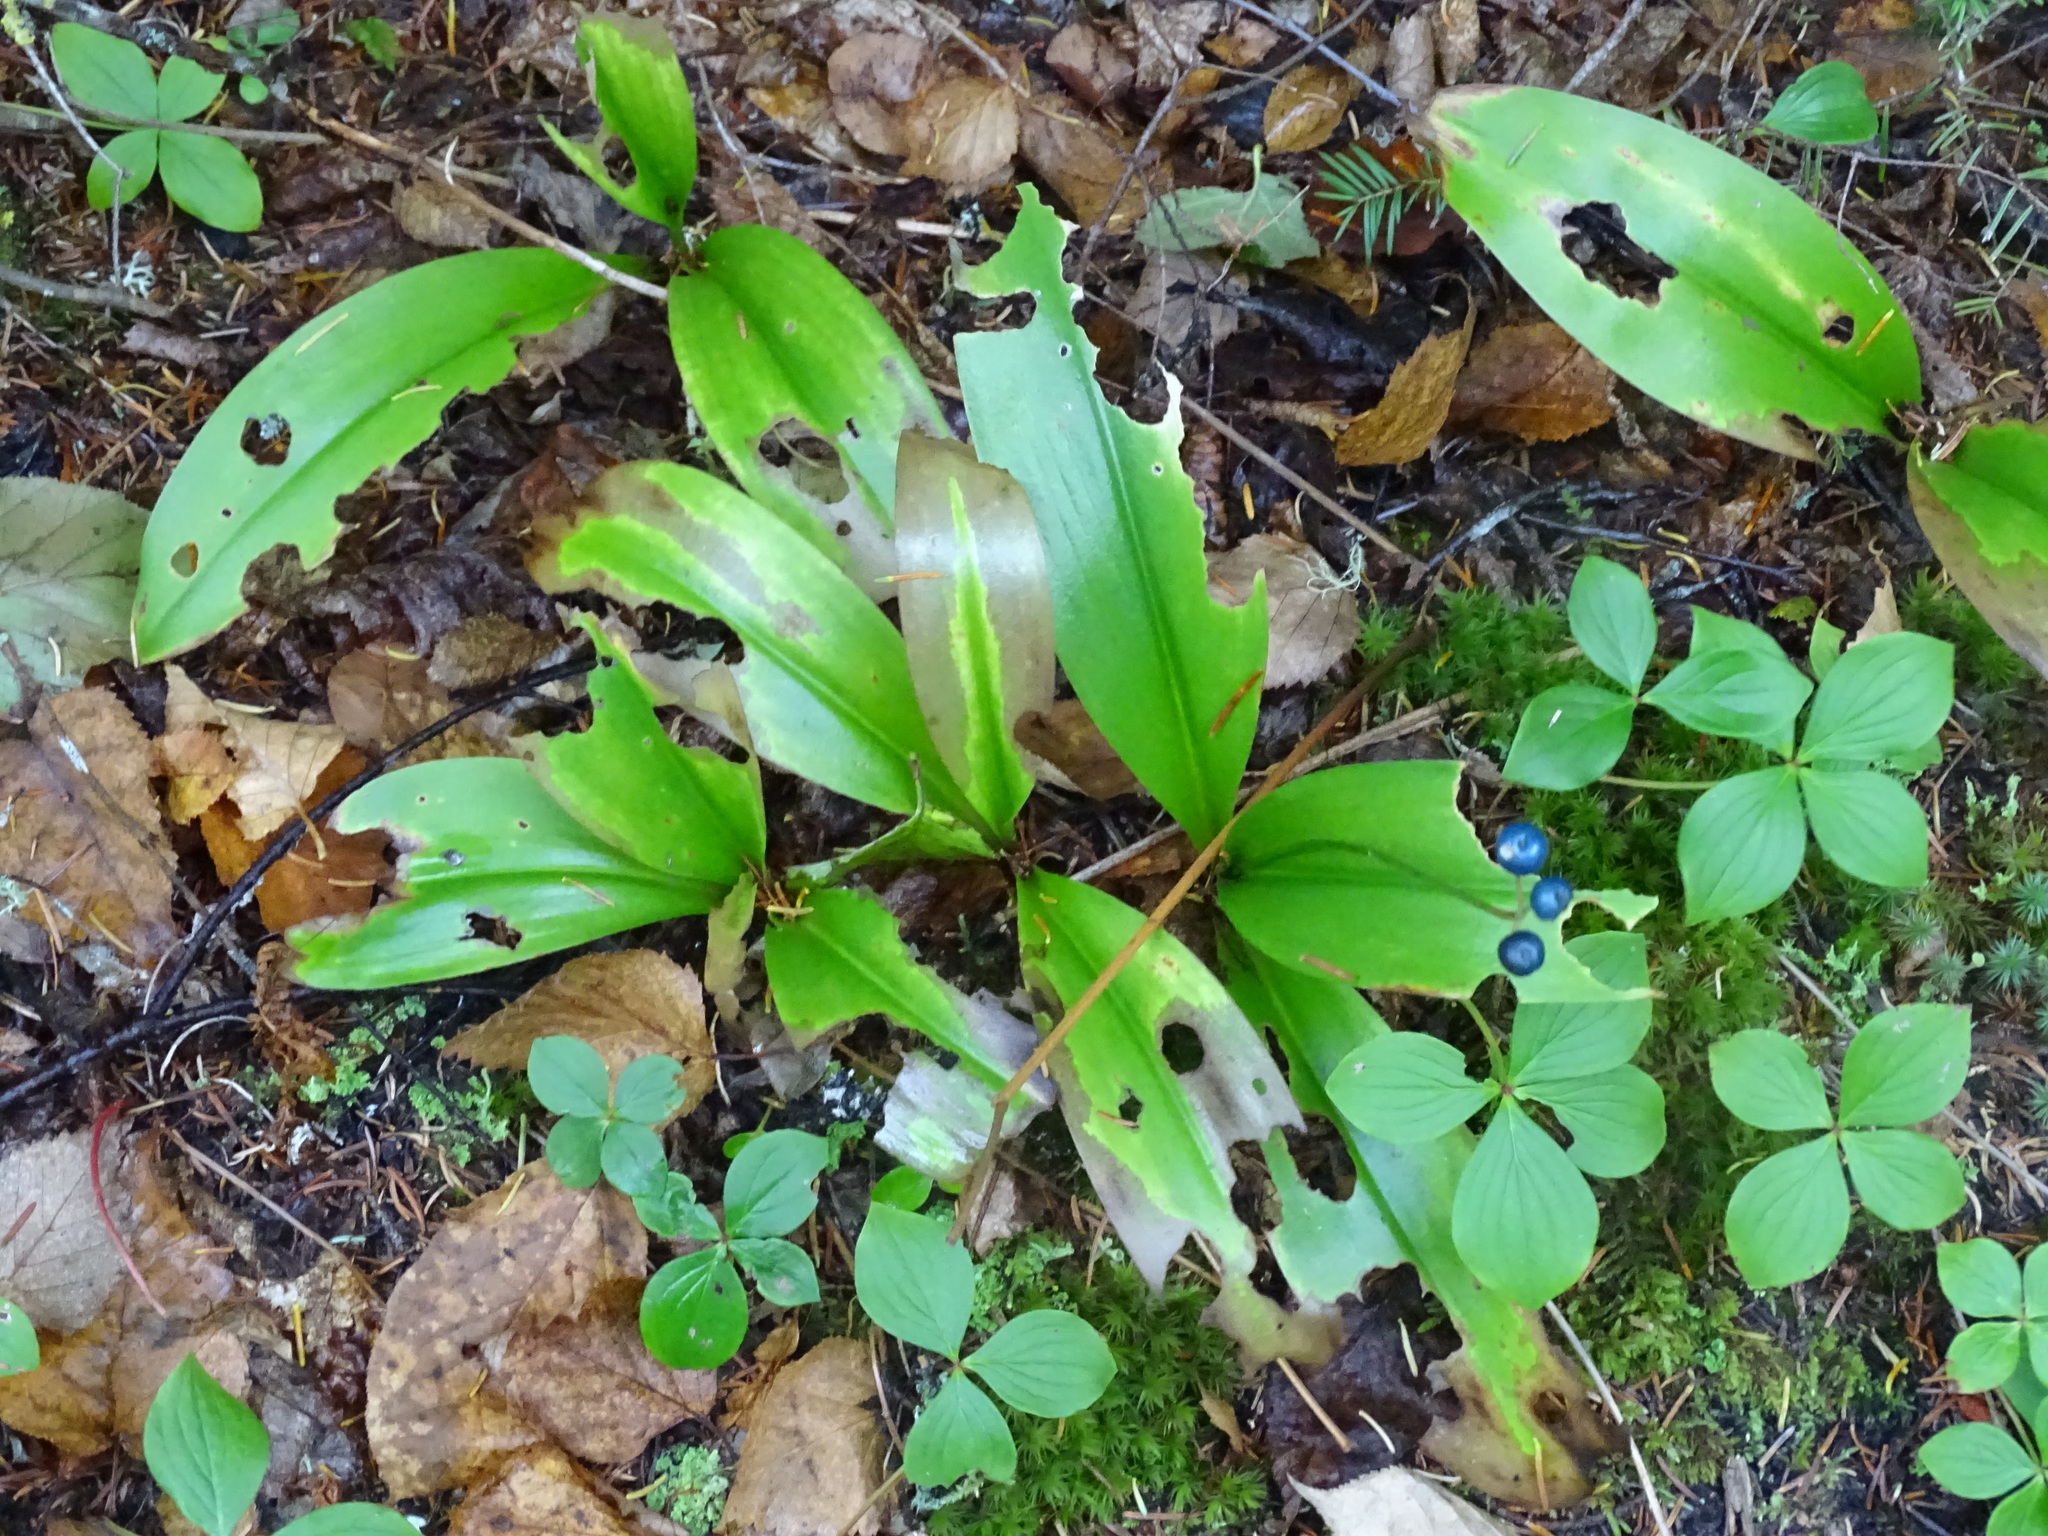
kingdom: Plantae
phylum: Tracheophyta
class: Liliopsida
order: Liliales
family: Liliaceae
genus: Clintonia
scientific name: Clintonia borealis
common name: Yellow clintonia
